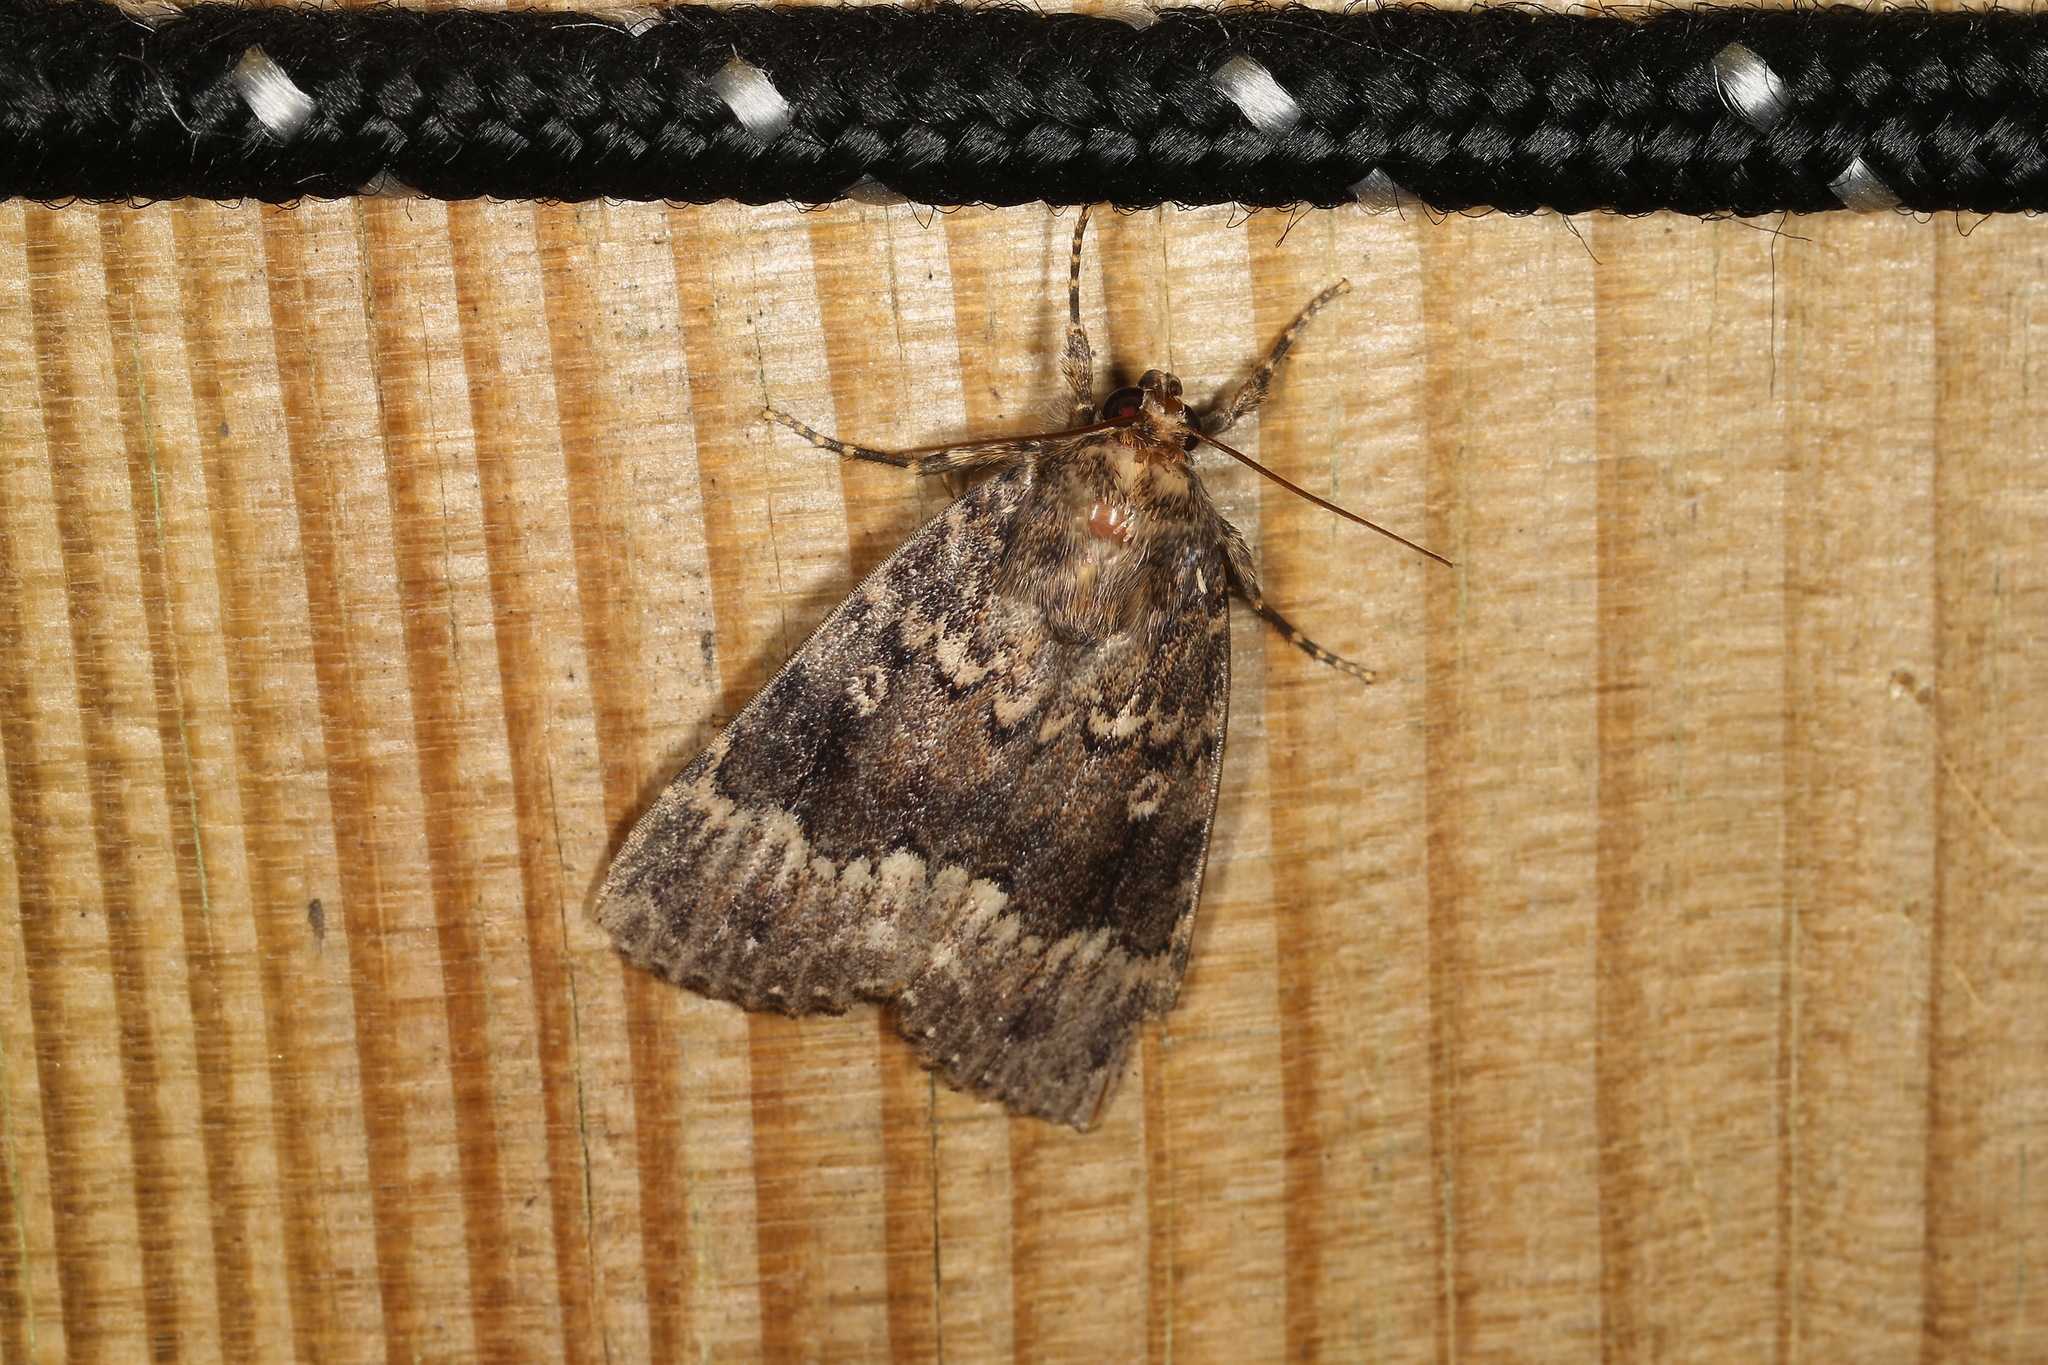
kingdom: Animalia
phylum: Arthropoda
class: Insecta
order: Lepidoptera
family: Noctuidae
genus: Amphipyra
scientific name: Amphipyra berbera
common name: Svensson's copper underwing
